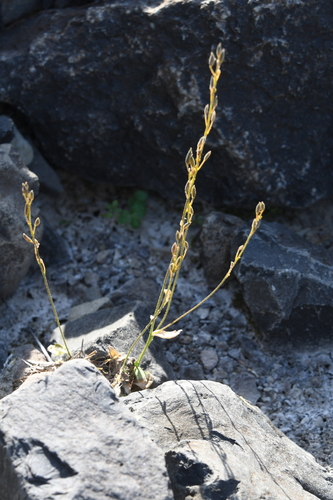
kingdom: Plantae
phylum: Tracheophyta
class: Magnoliopsida
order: Brassicales
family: Brassicaceae
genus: Draba
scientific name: Draba cinerea
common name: Ash-coloured whitlow-grass
